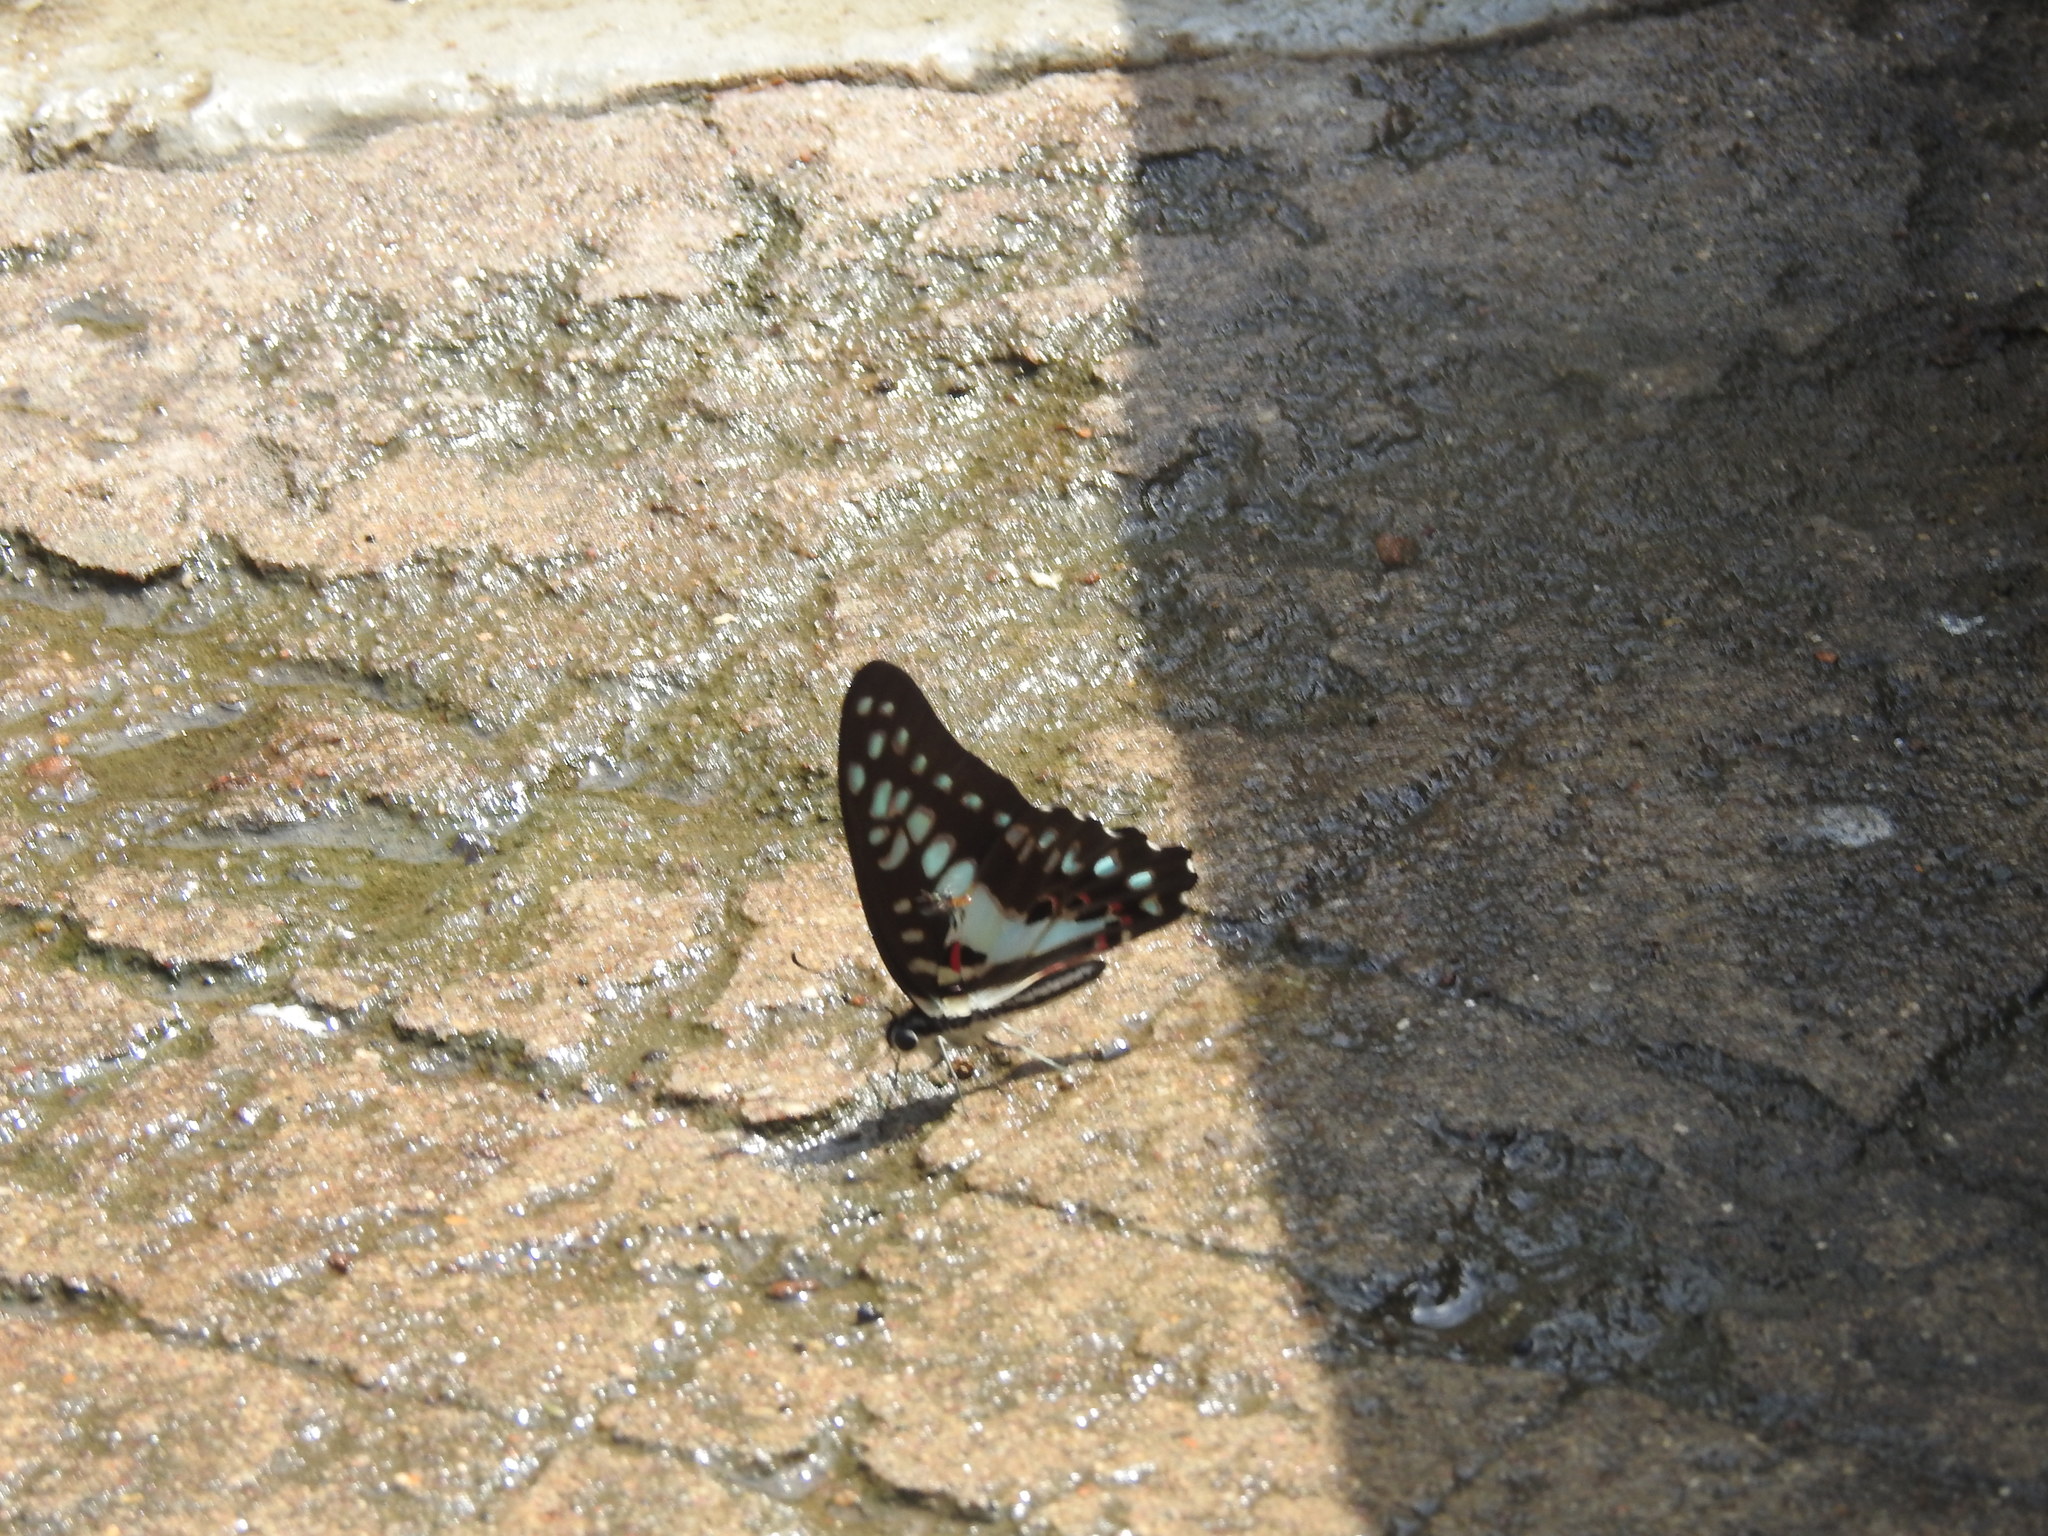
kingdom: Animalia
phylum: Arthropoda
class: Insecta
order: Lepidoptera
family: Papilionidae
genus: Graphium
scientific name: Graphium doson
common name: Common jay
